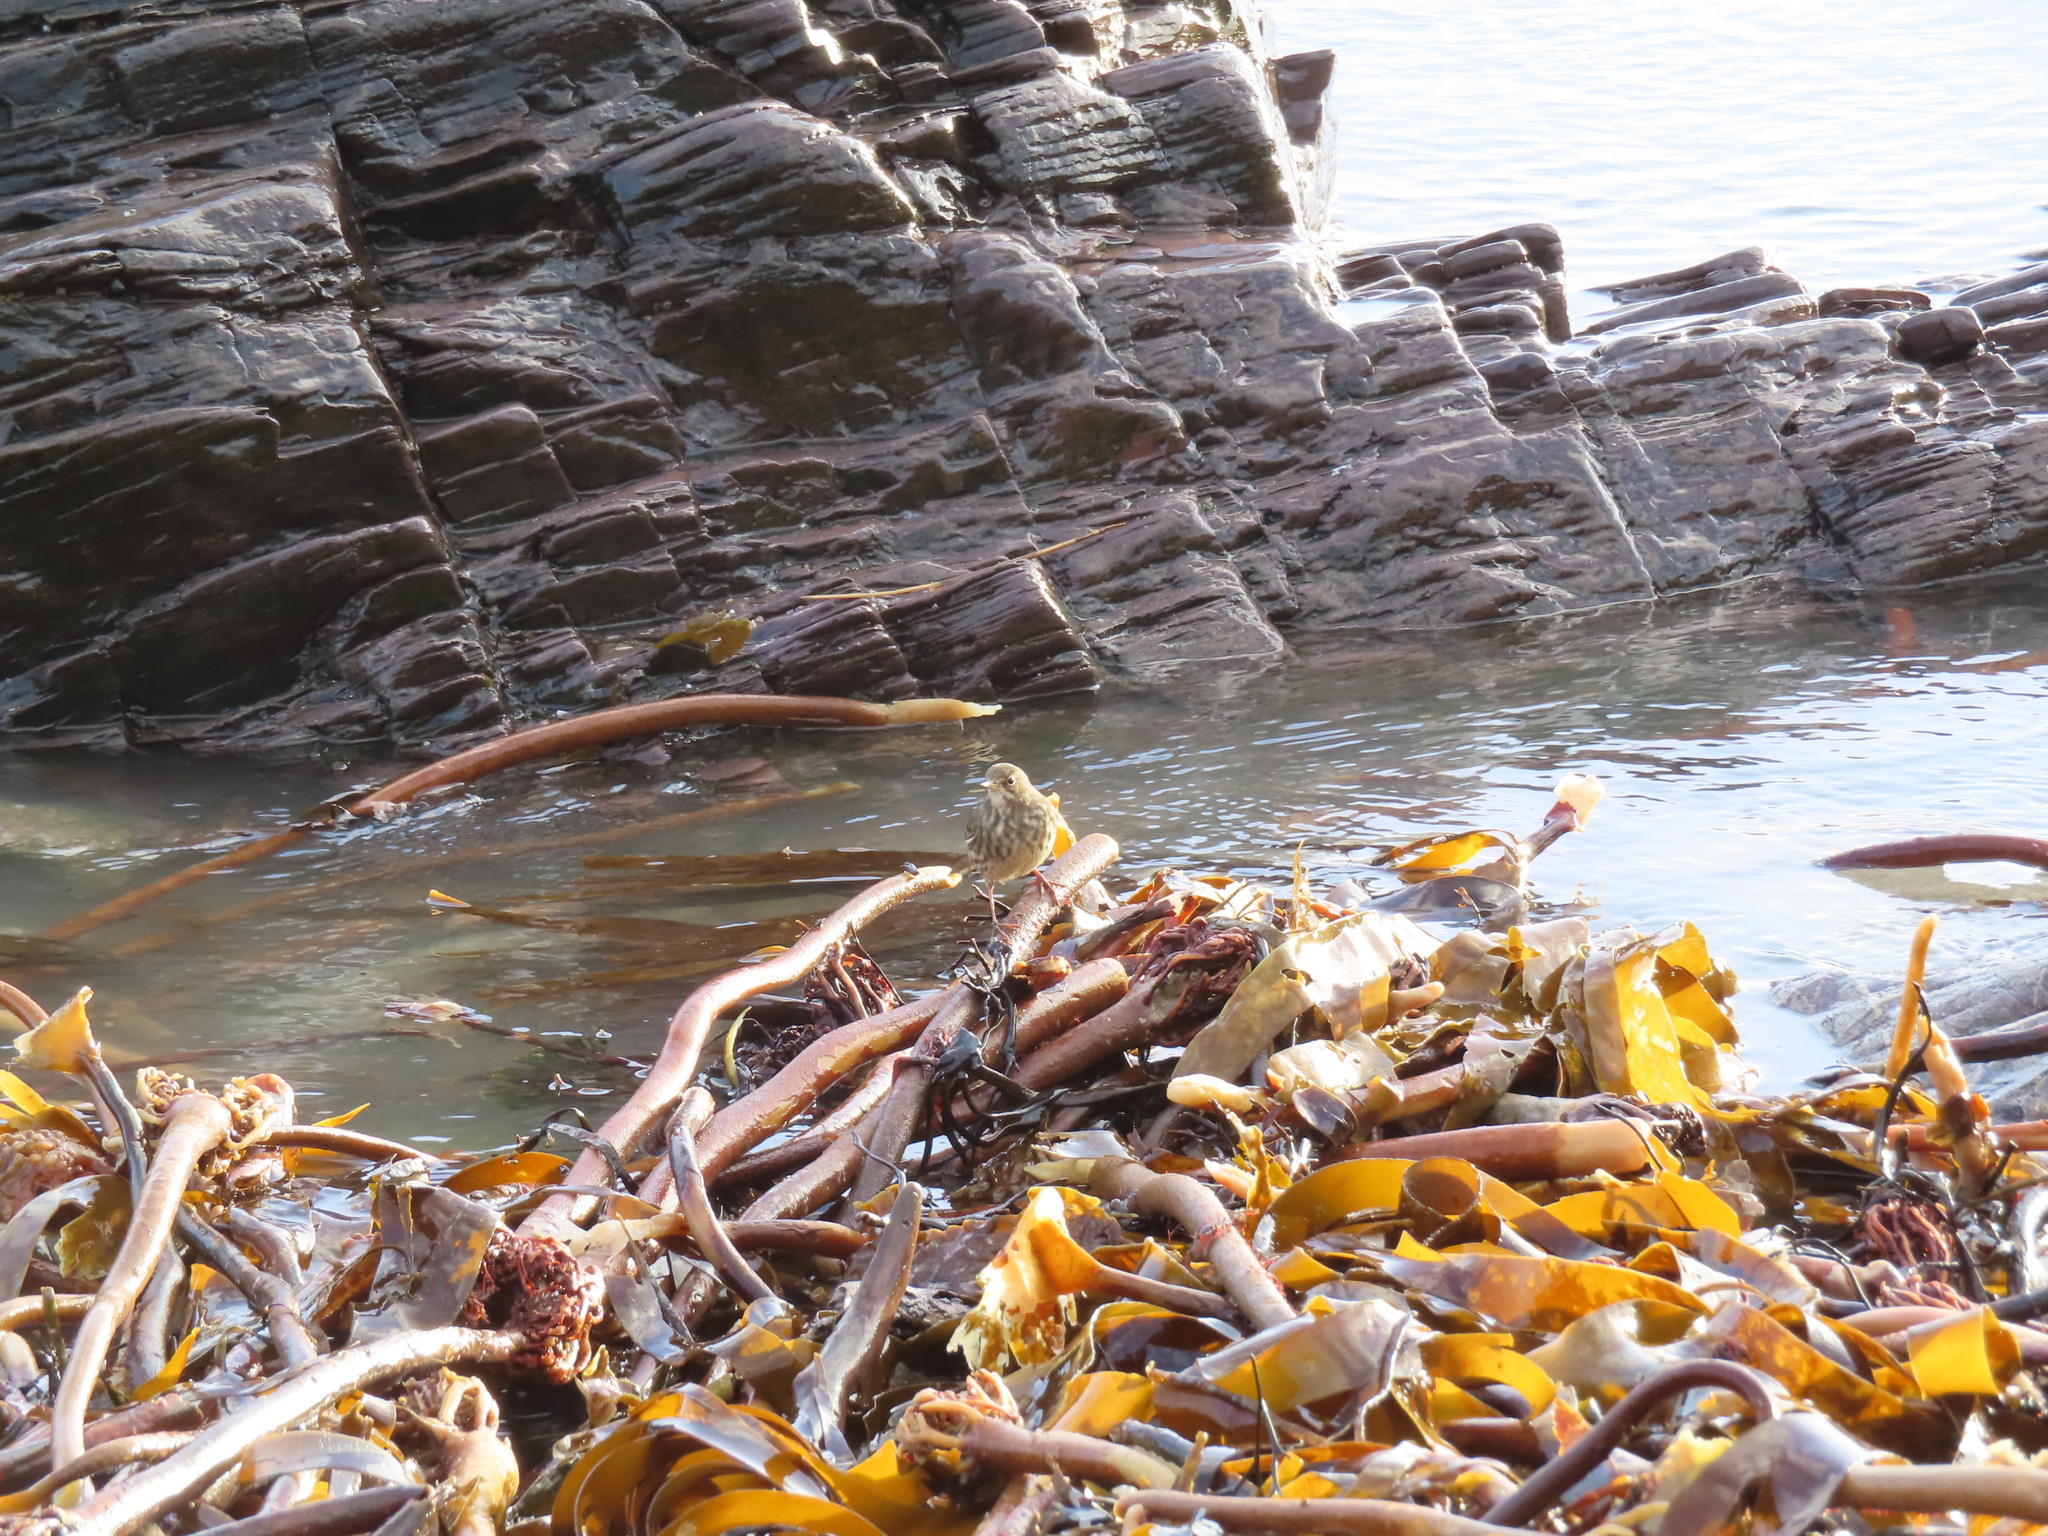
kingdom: Animalia
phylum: Chordata
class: Aves
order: Passeriformes
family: Motacillidae
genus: Anthus
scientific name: Anthus petrosus
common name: Eurasian rock pipit
